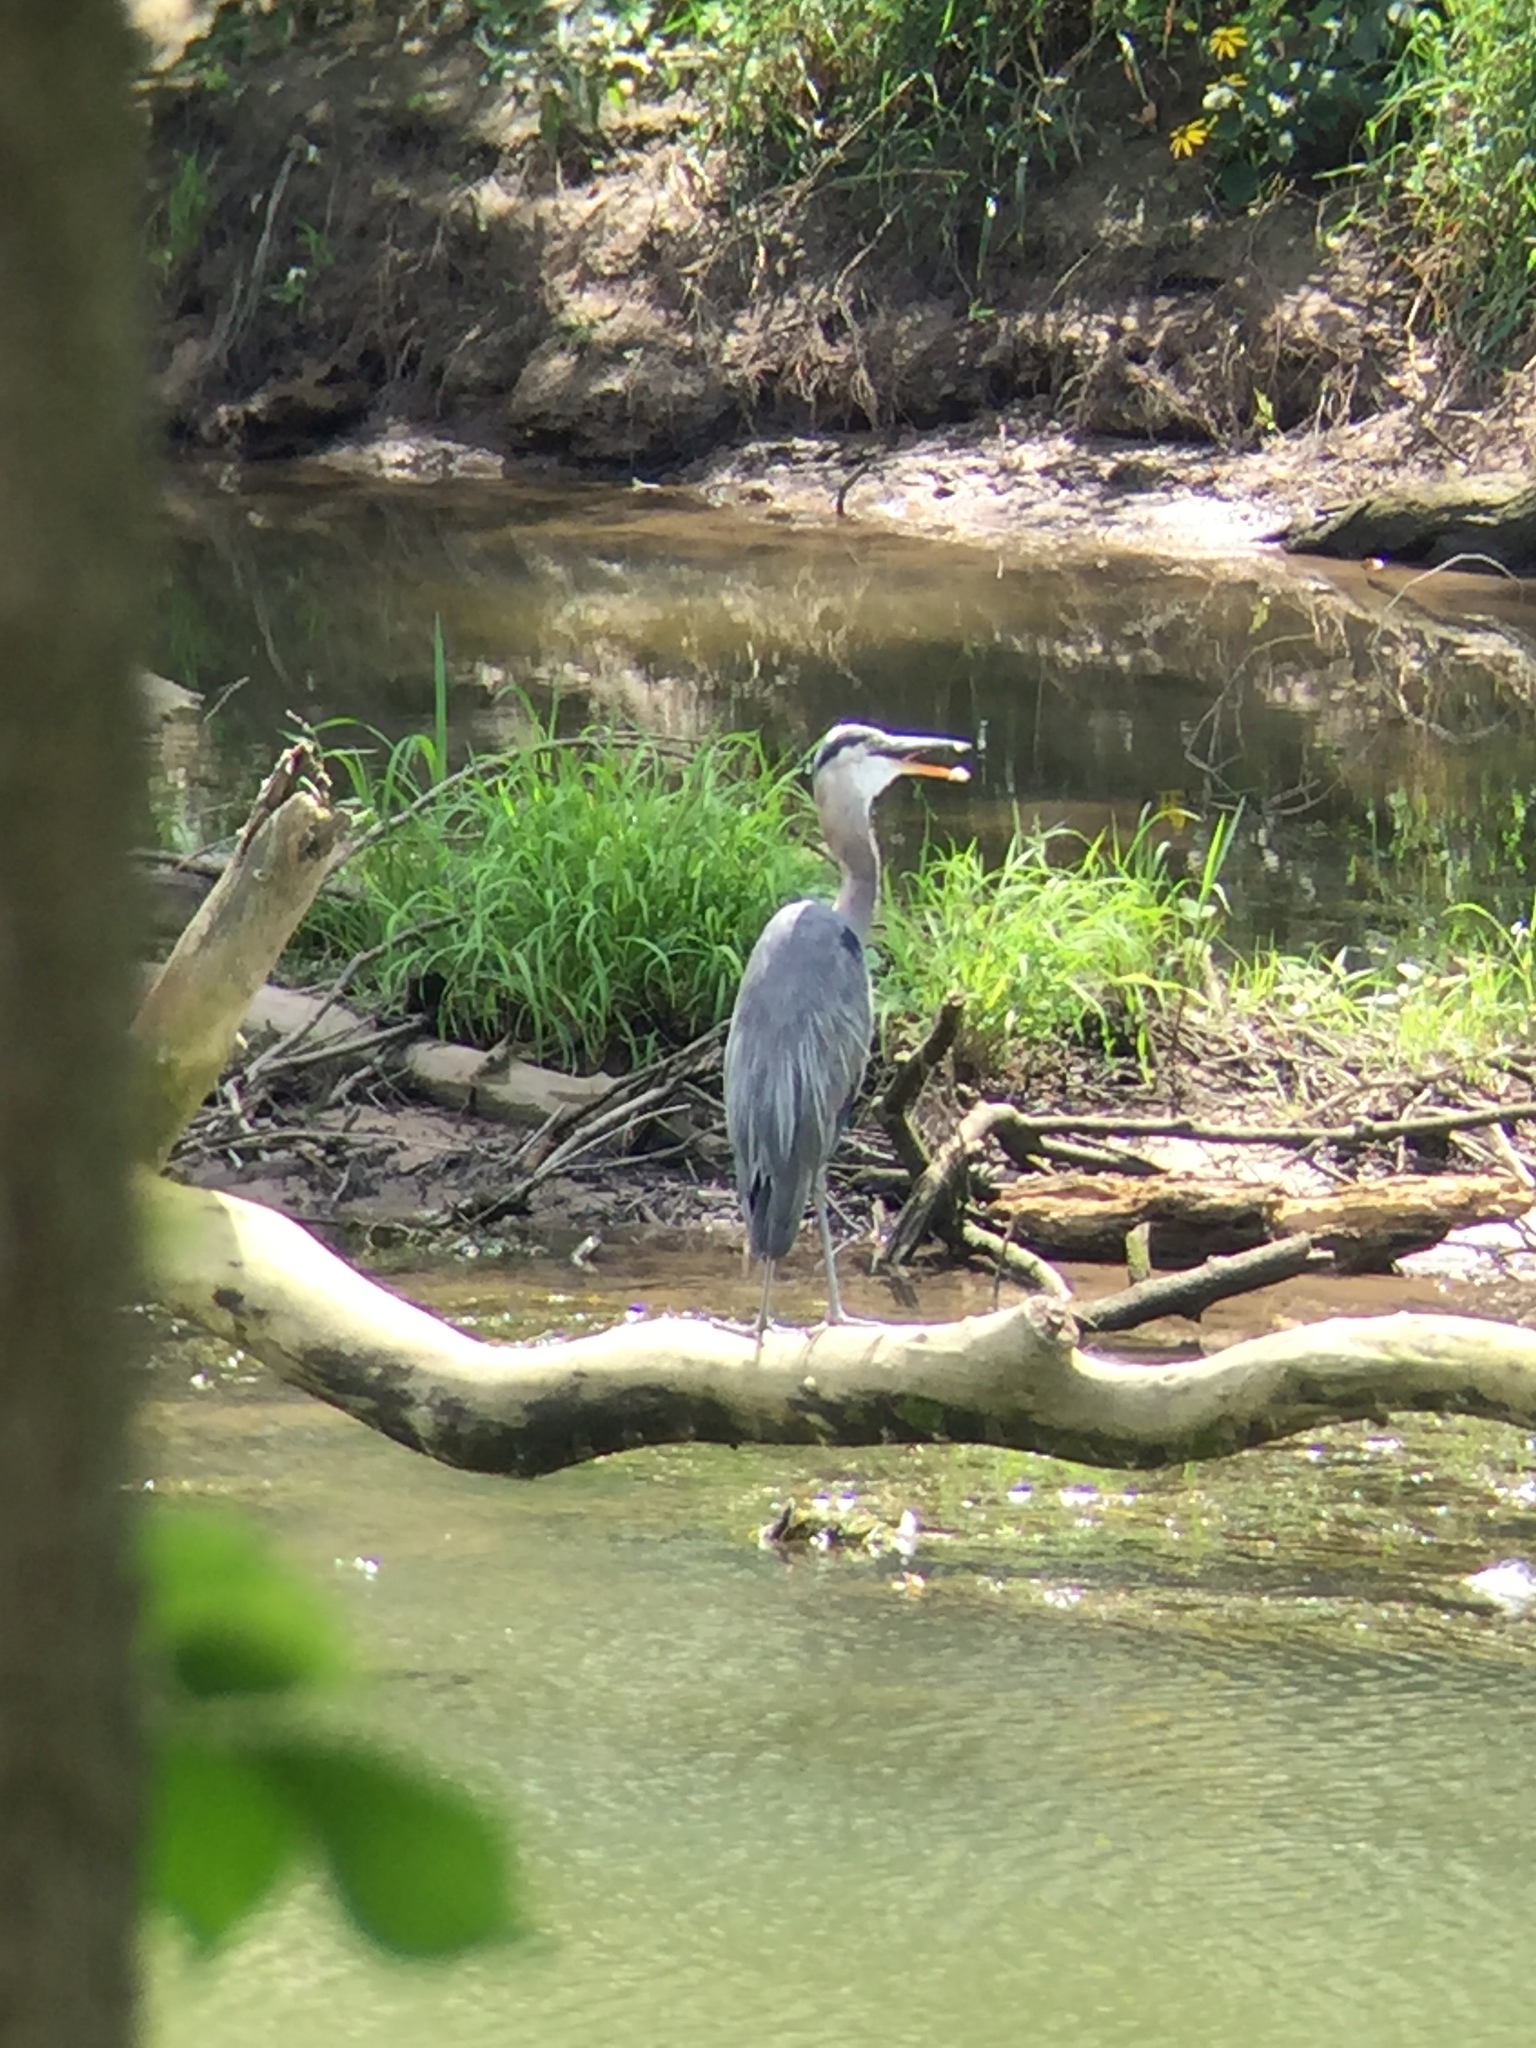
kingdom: Animalia
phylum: Chordata
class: Aves
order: Pelecaniformes
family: Ardeidae
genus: Ardea
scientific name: Ardea herodias
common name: Great blue heron
